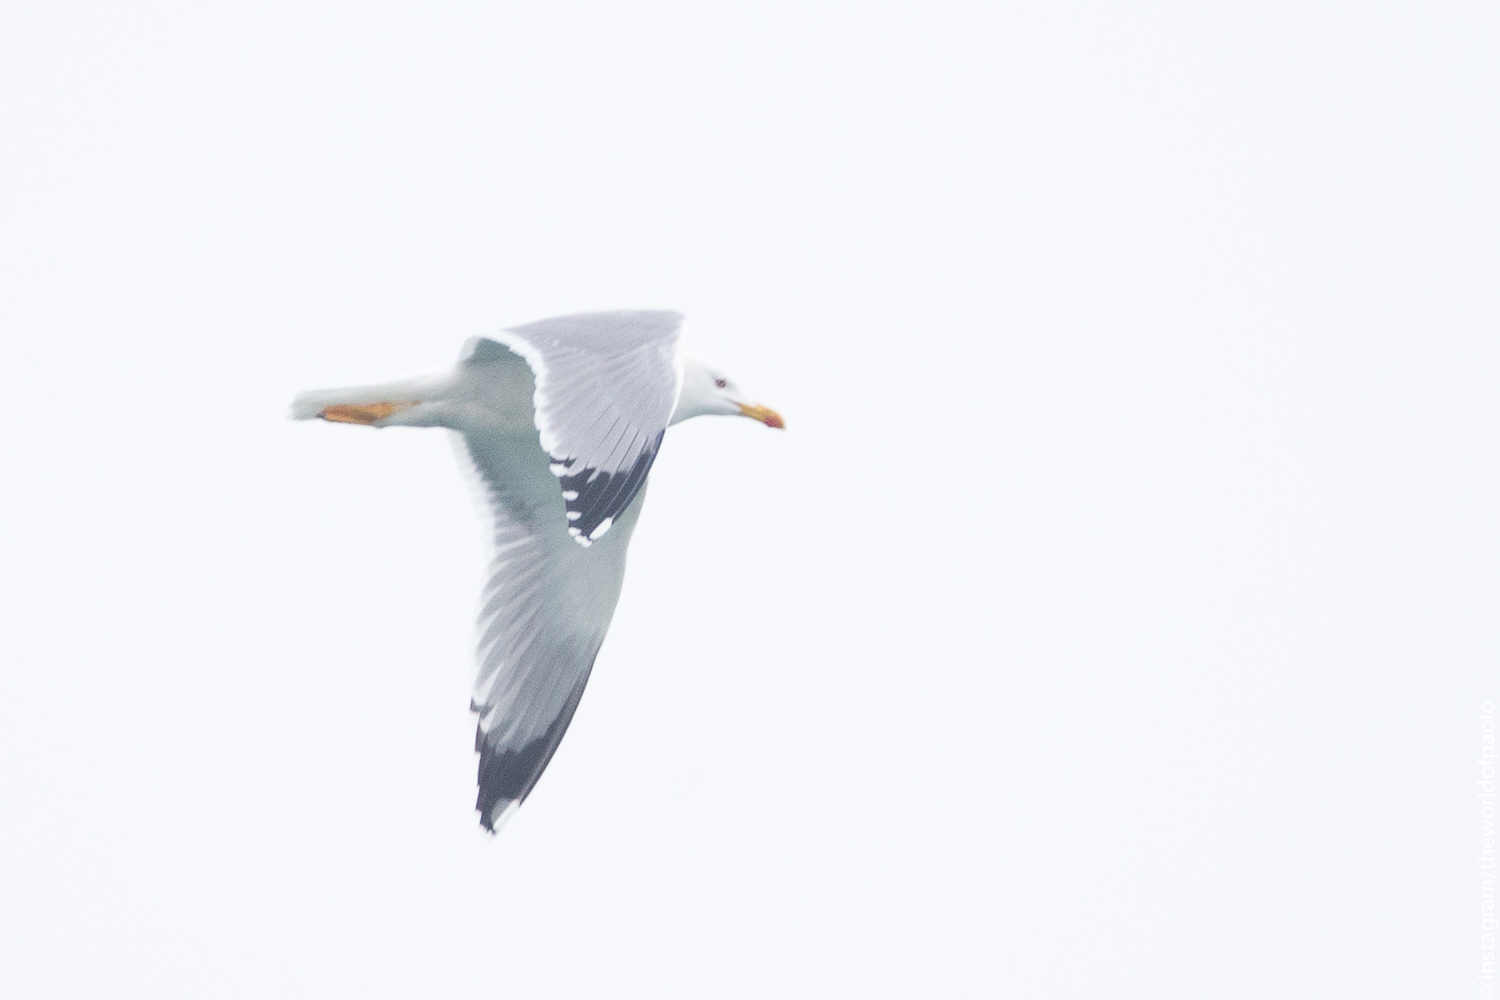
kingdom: Animalia
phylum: Chordata
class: Aves
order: Charadriiformes
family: Laridae
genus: Larus
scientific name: Larus michahellis
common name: Yellow-legged gull
